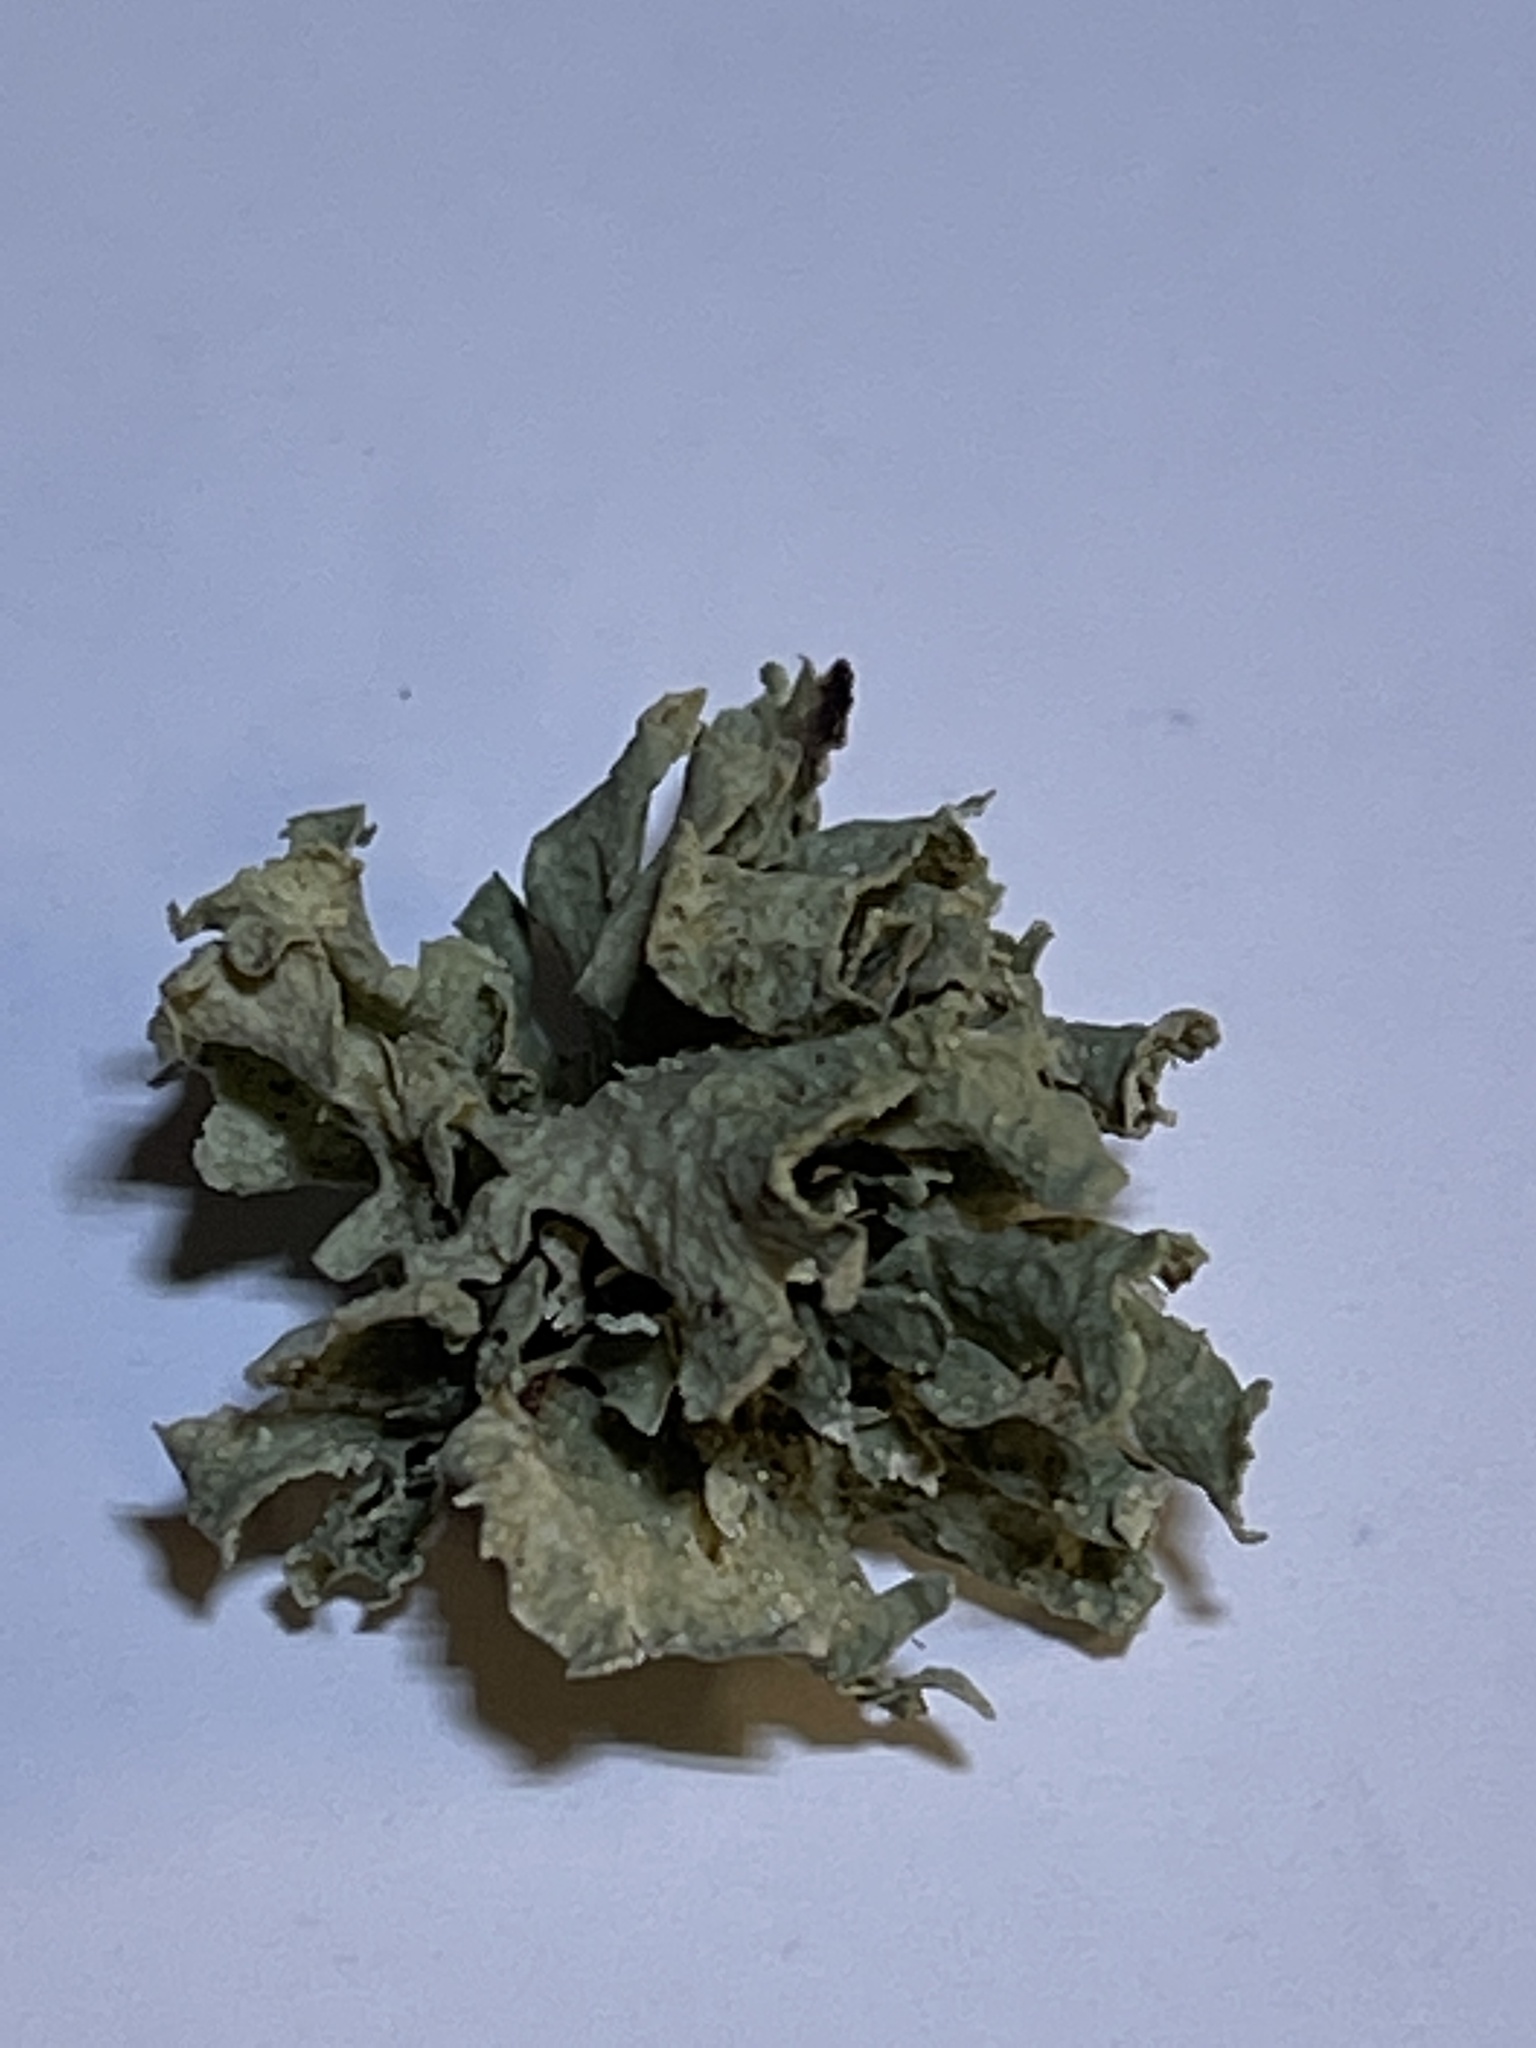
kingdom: Fungi
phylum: Ascomycota
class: Lecanoromycetes
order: Lecanorales
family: Ramalinaceae
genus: Ramalina
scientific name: Ramalina
